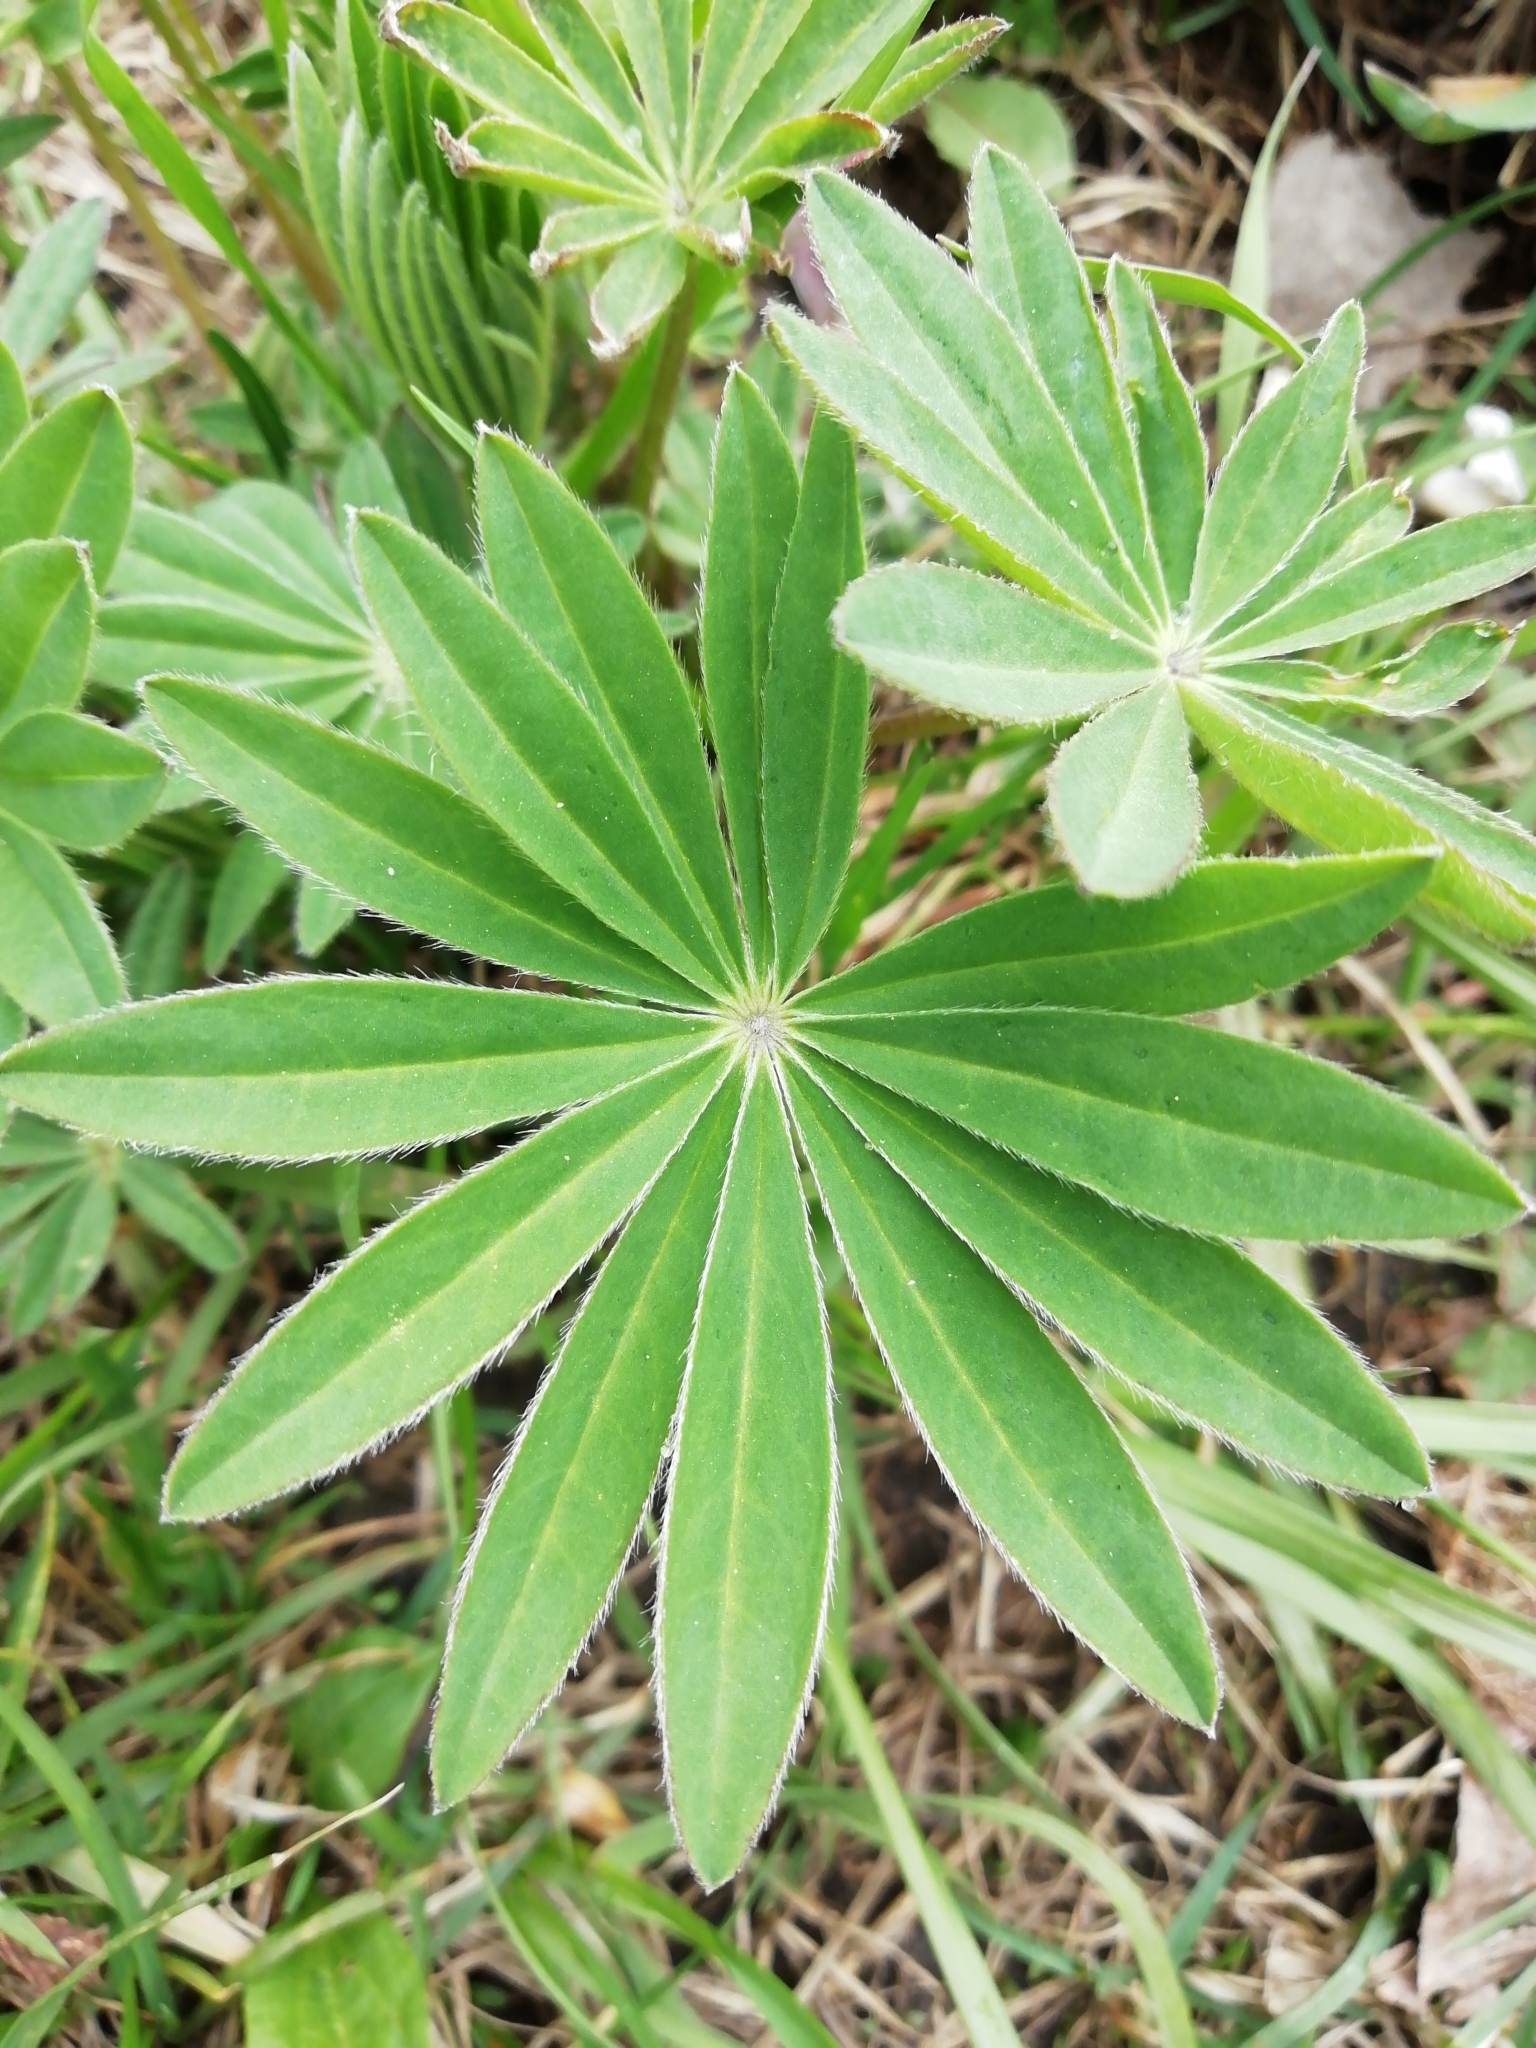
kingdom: Plantae
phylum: Tracheophyta
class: Magnoliopsida
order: Fabales
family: Fabaceae
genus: Lupinus
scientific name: Lupinus polyphyllus
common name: Garden lupin
